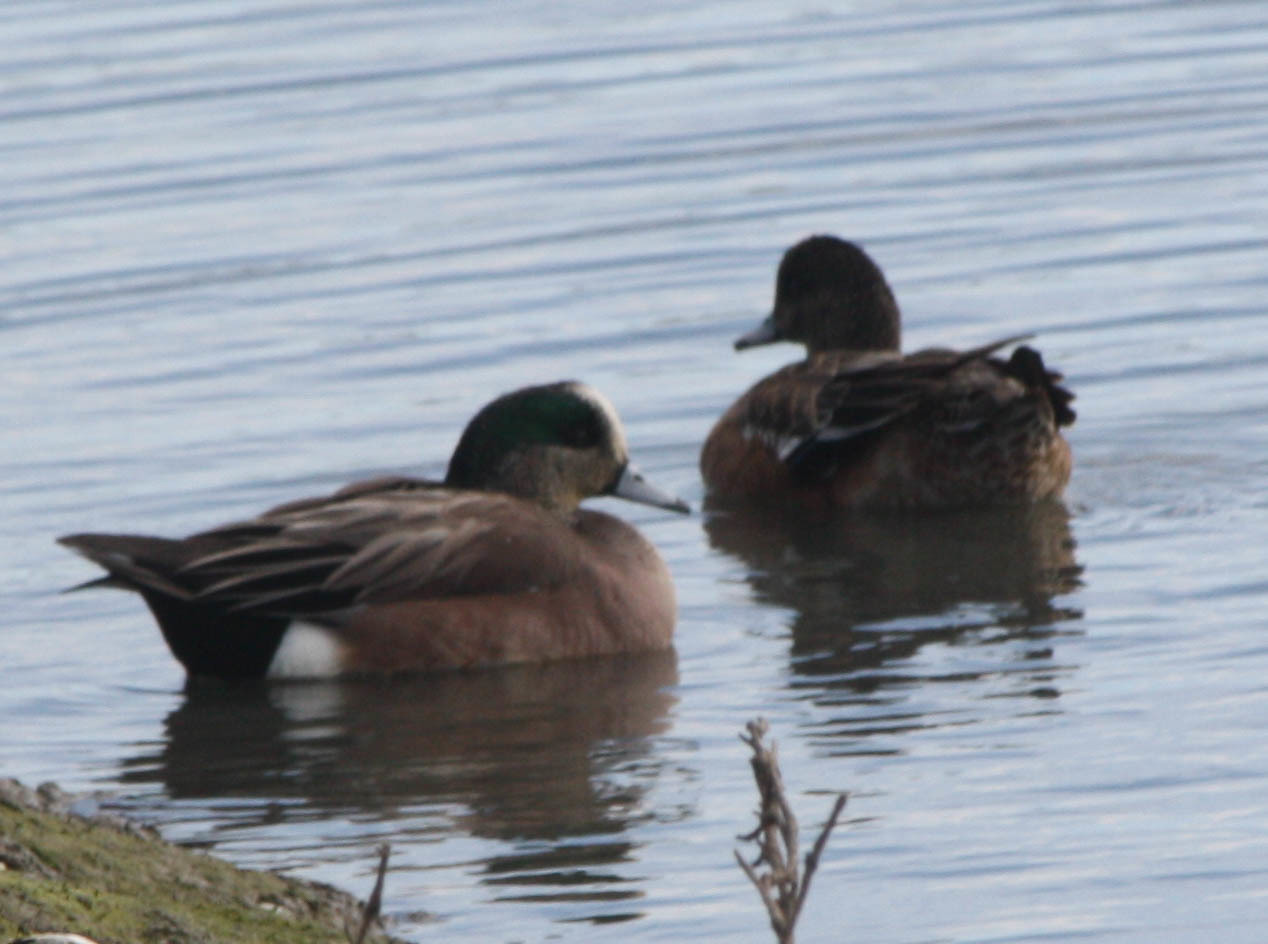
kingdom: Animalia
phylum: Chordata
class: Aves
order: Anseriformes
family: Anatidae
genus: Mareca
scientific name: Mareca americana
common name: American wigeon
